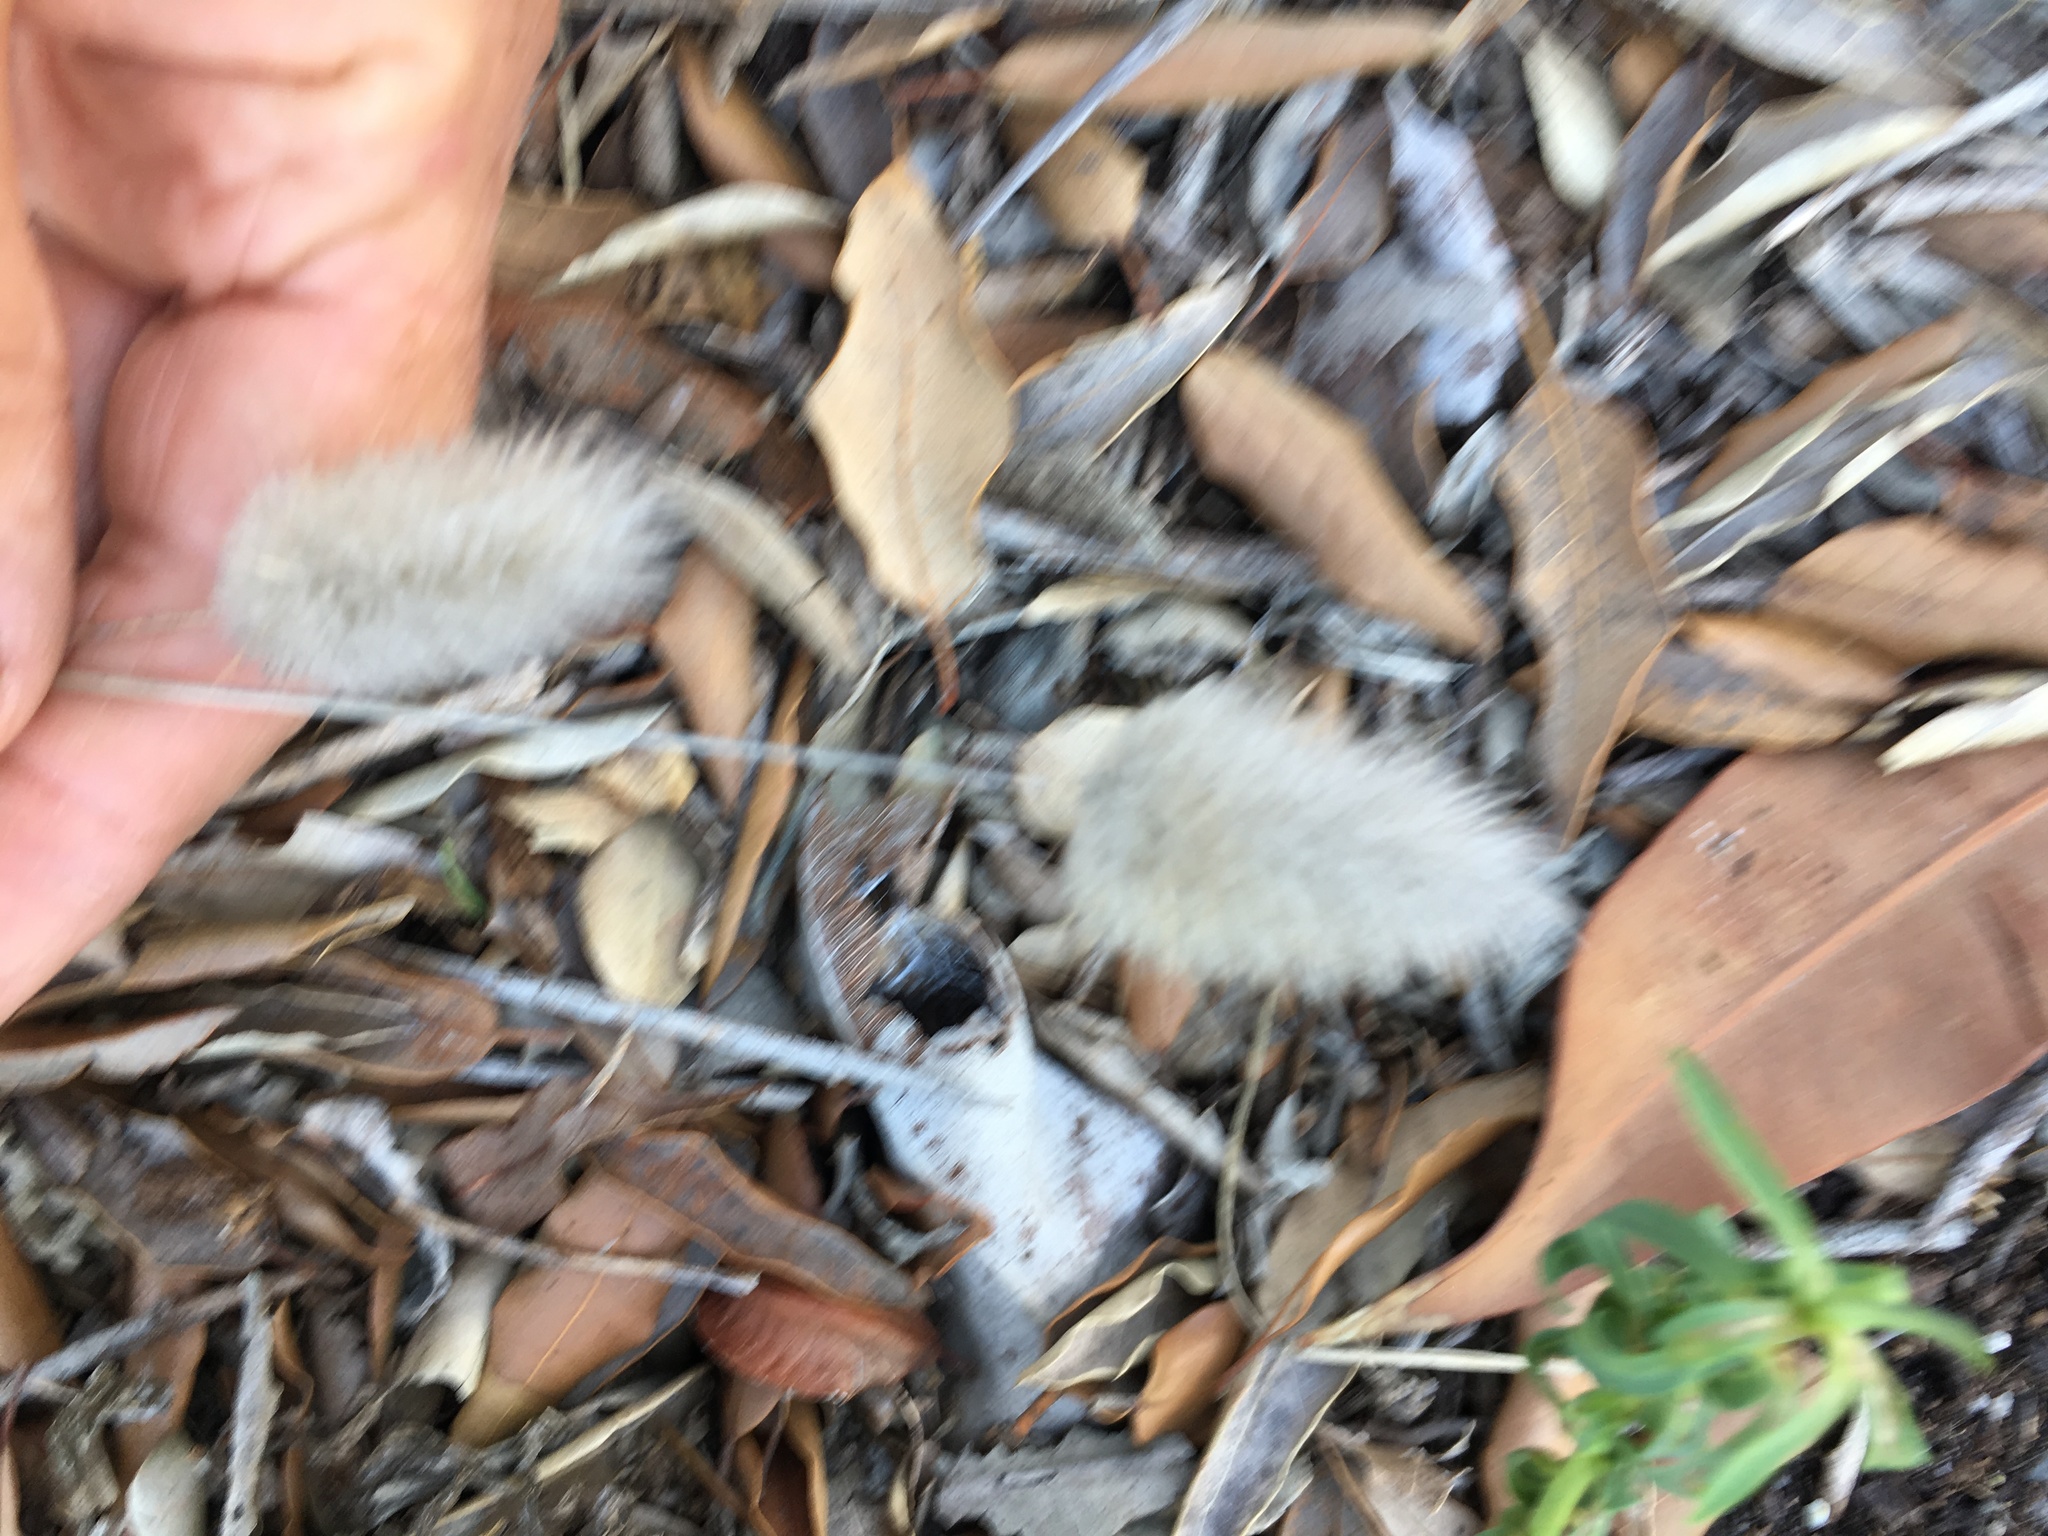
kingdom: Plantae
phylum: Tracheophyta
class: Liliopsida
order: Poales
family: Poaceae
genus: Lagurus
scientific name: Lagurus ovatus
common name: Hare's-tail
